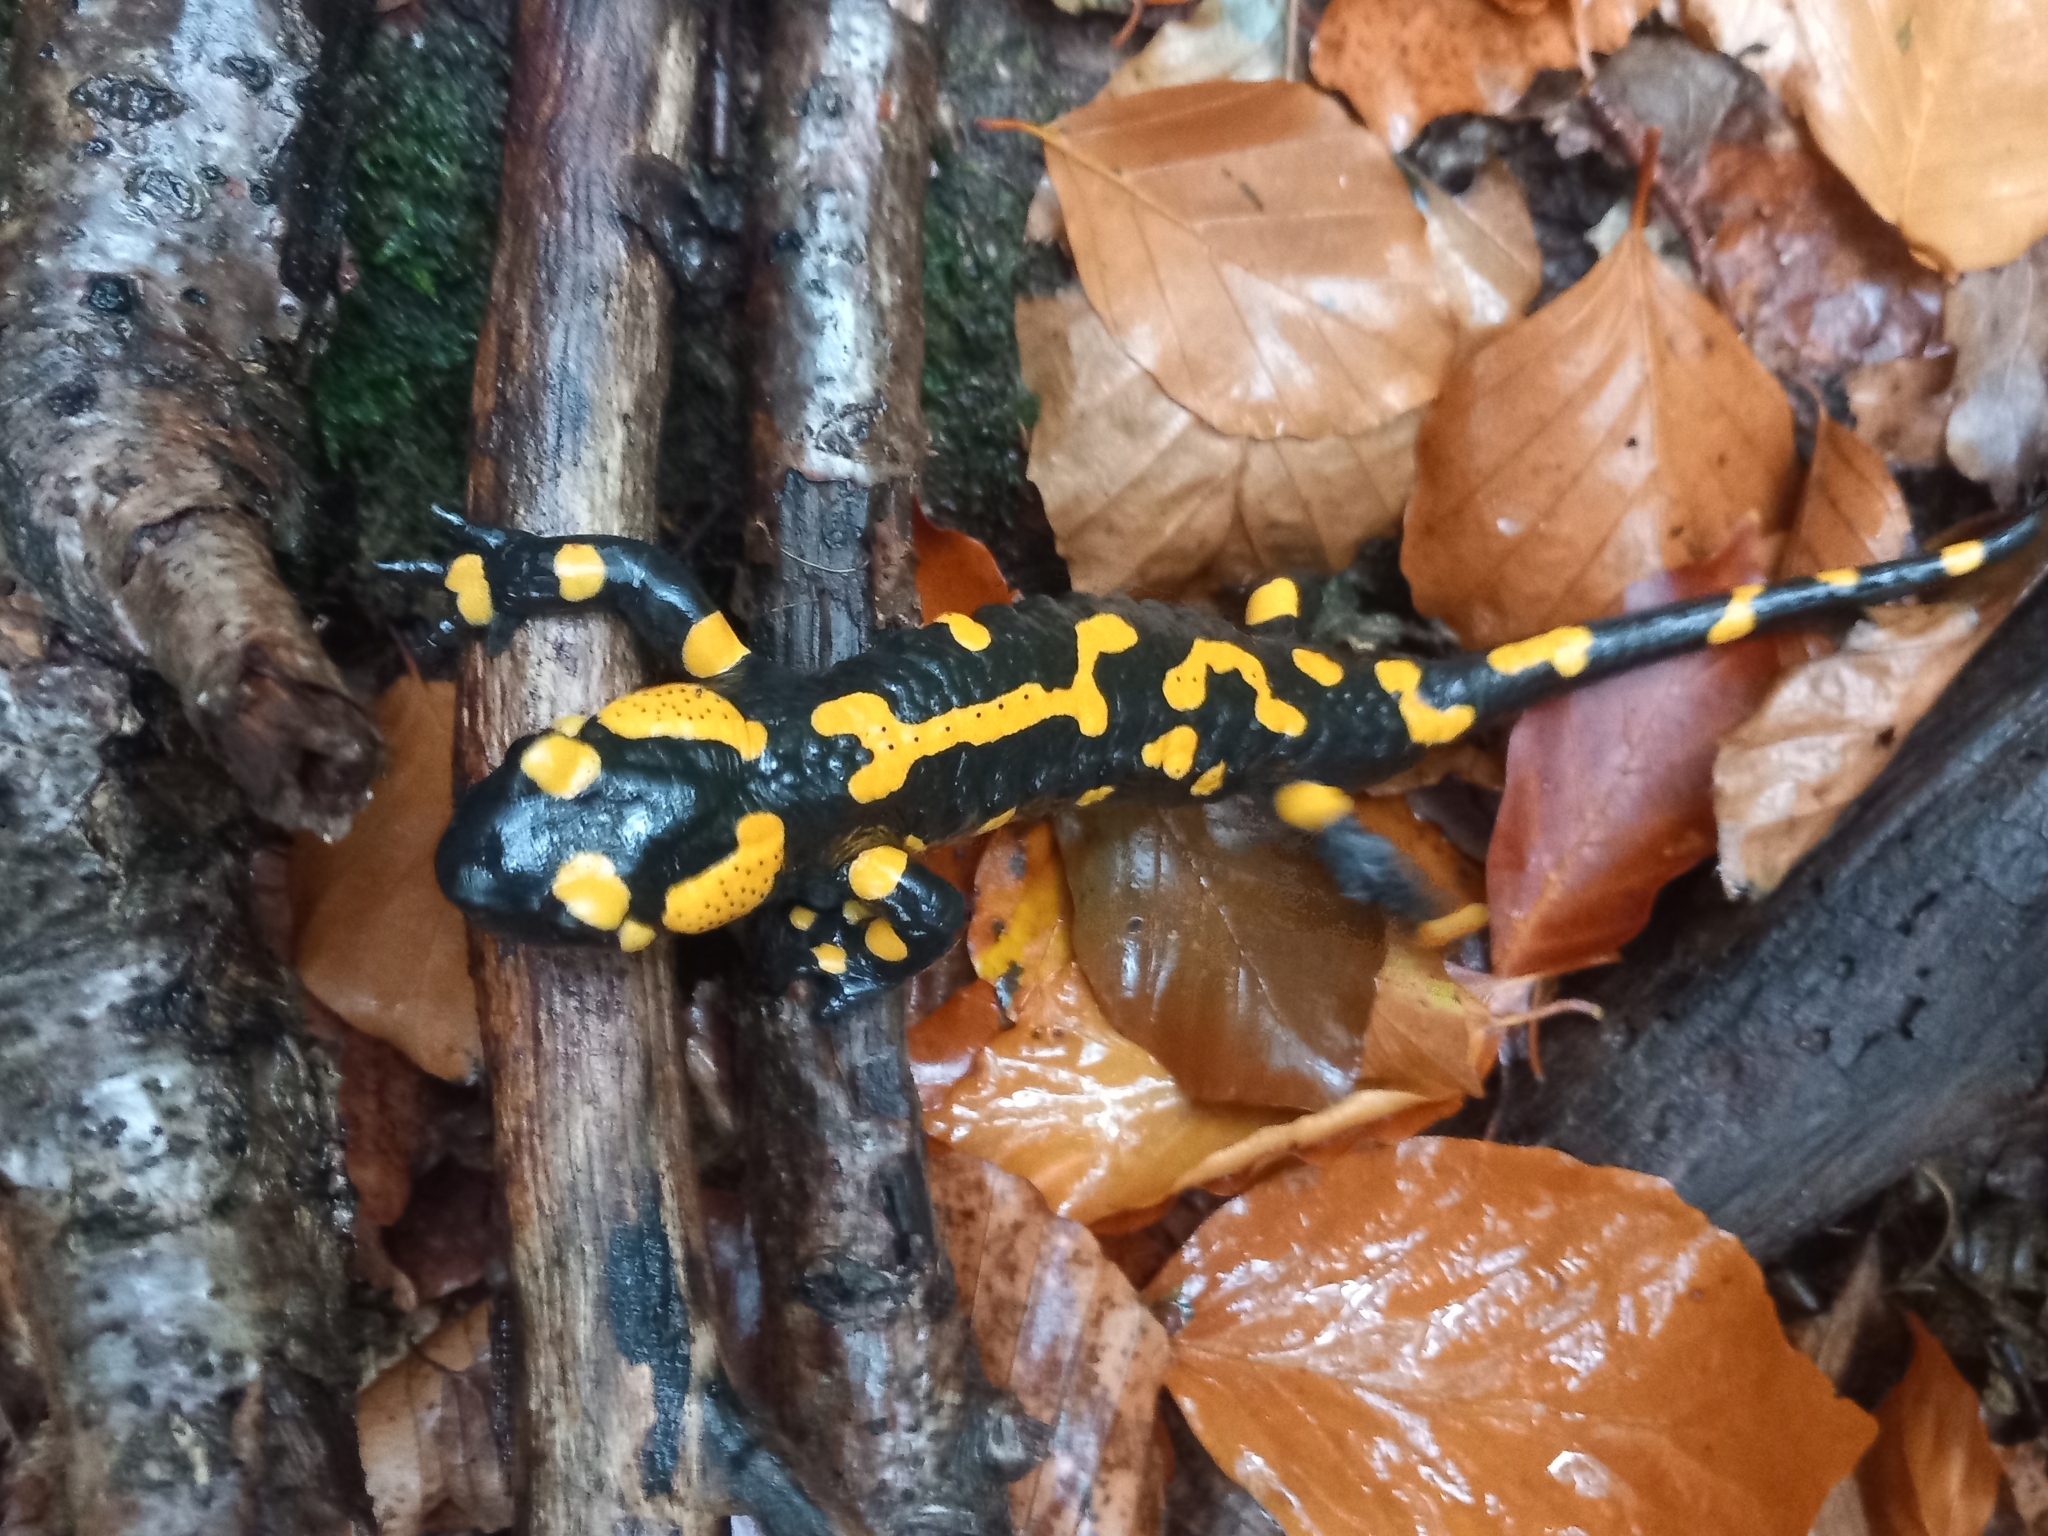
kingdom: Animalia
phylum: Chordata
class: Amphibia
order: Caudata
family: Salamandridae
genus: Salamandra
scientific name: Salamandra salamandra
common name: Fire salamander
